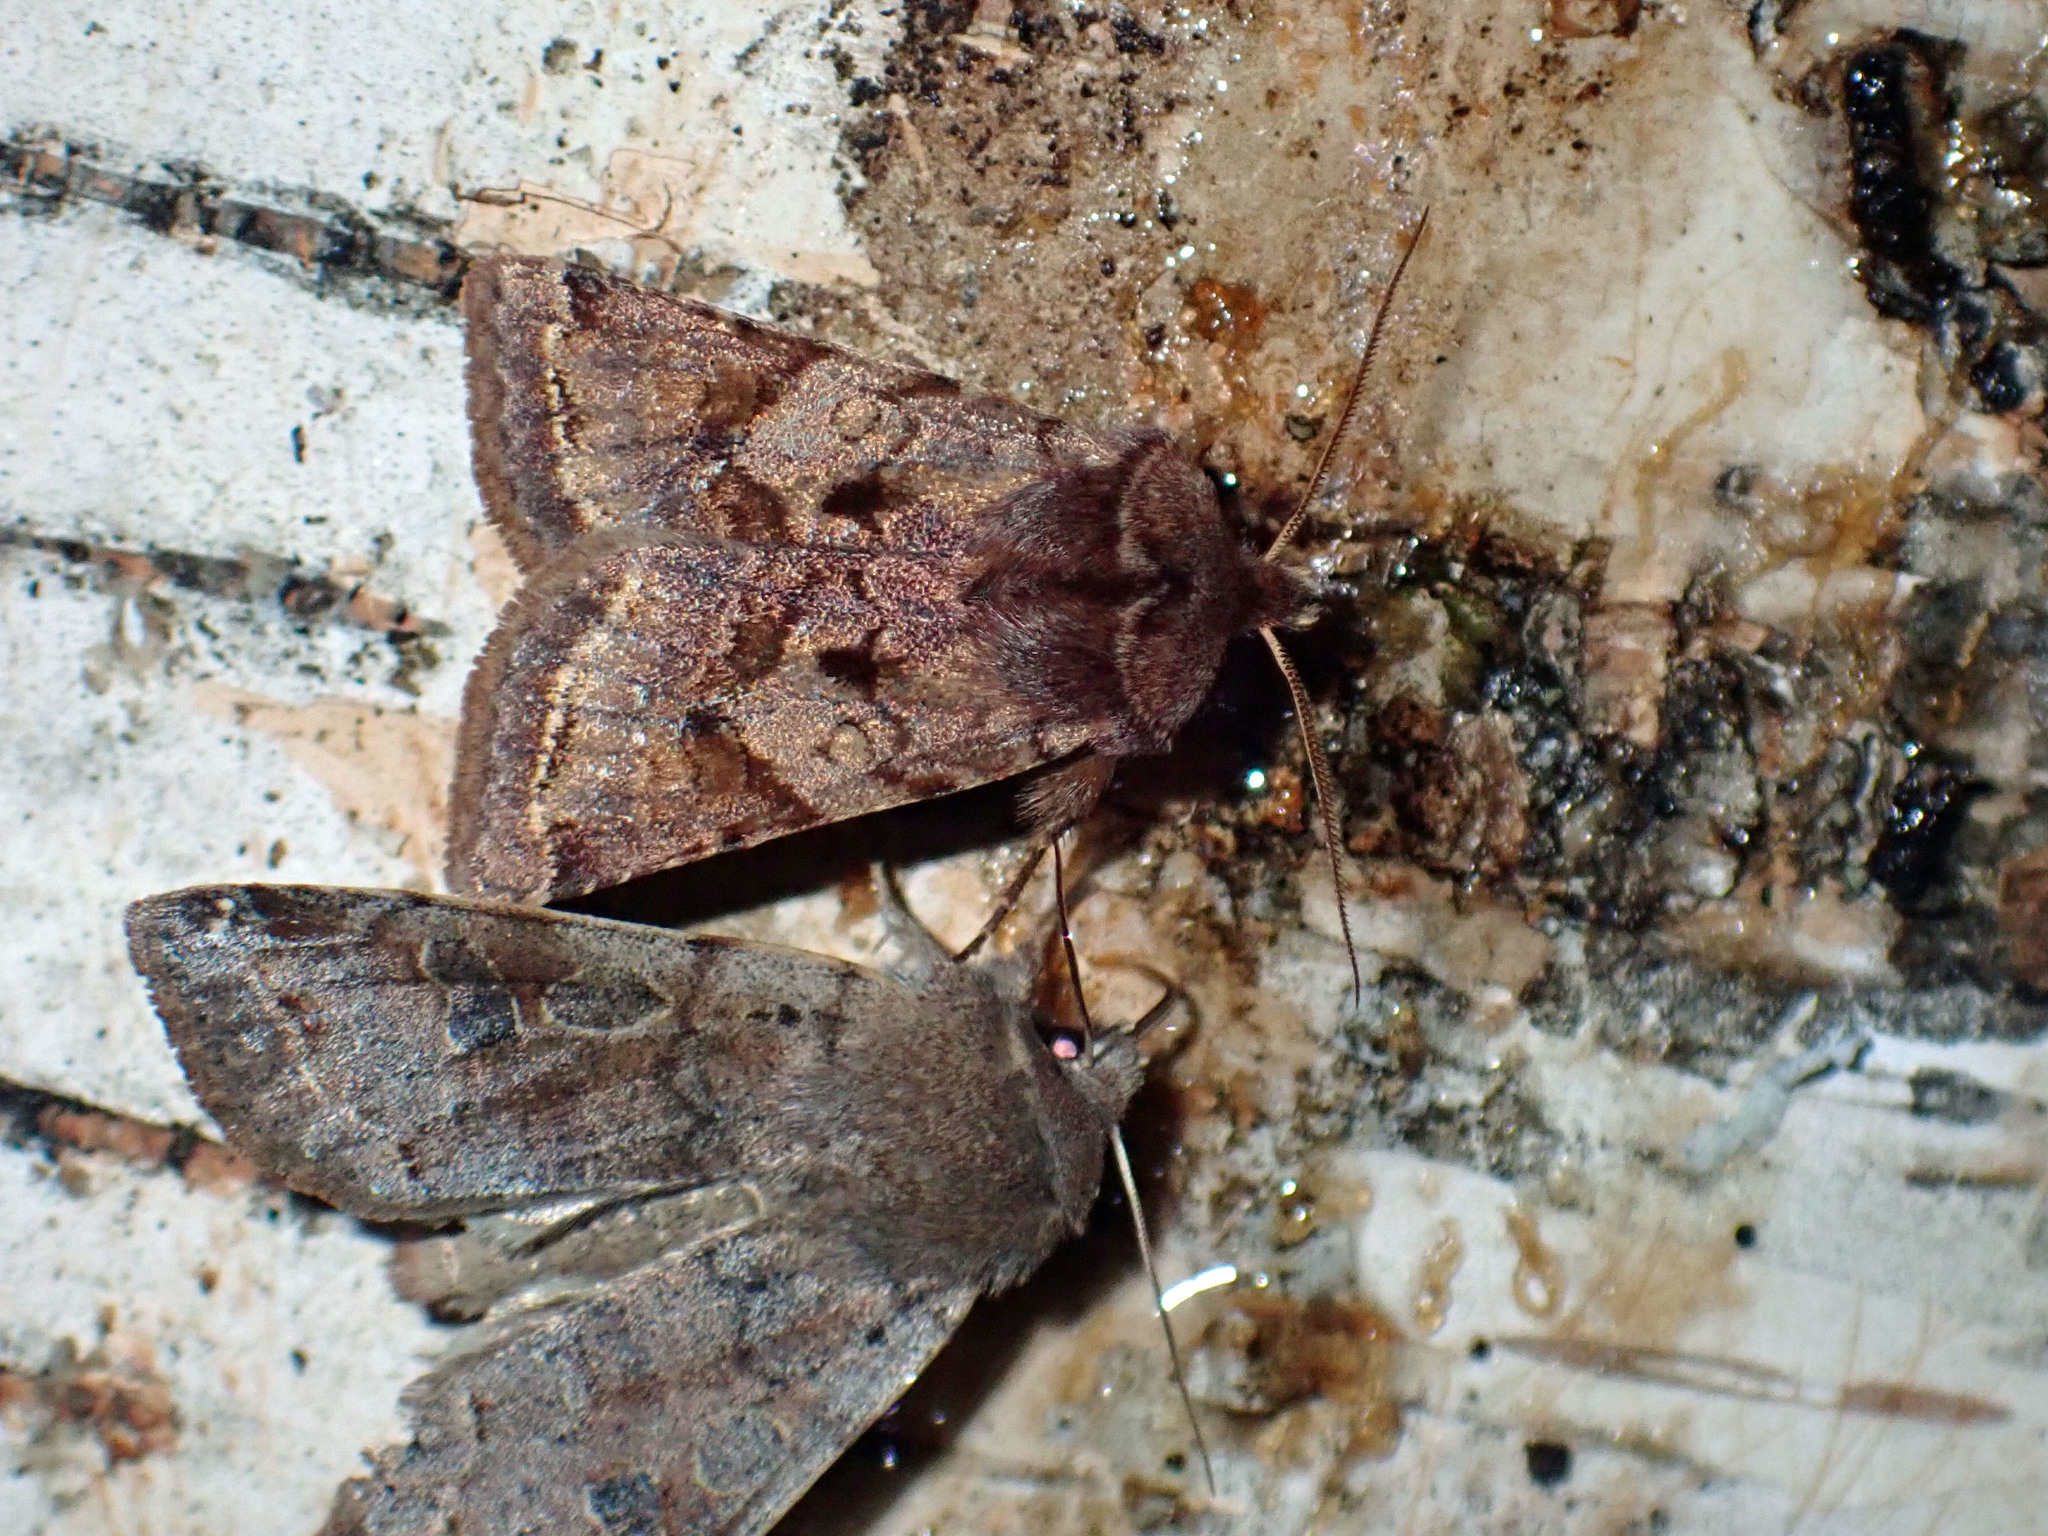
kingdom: Animalia
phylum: Arthropoda
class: Insecta
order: Lepidoptera
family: Noctuidae
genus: Cerastis
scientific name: Cerastis salicarum
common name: Willow dart
